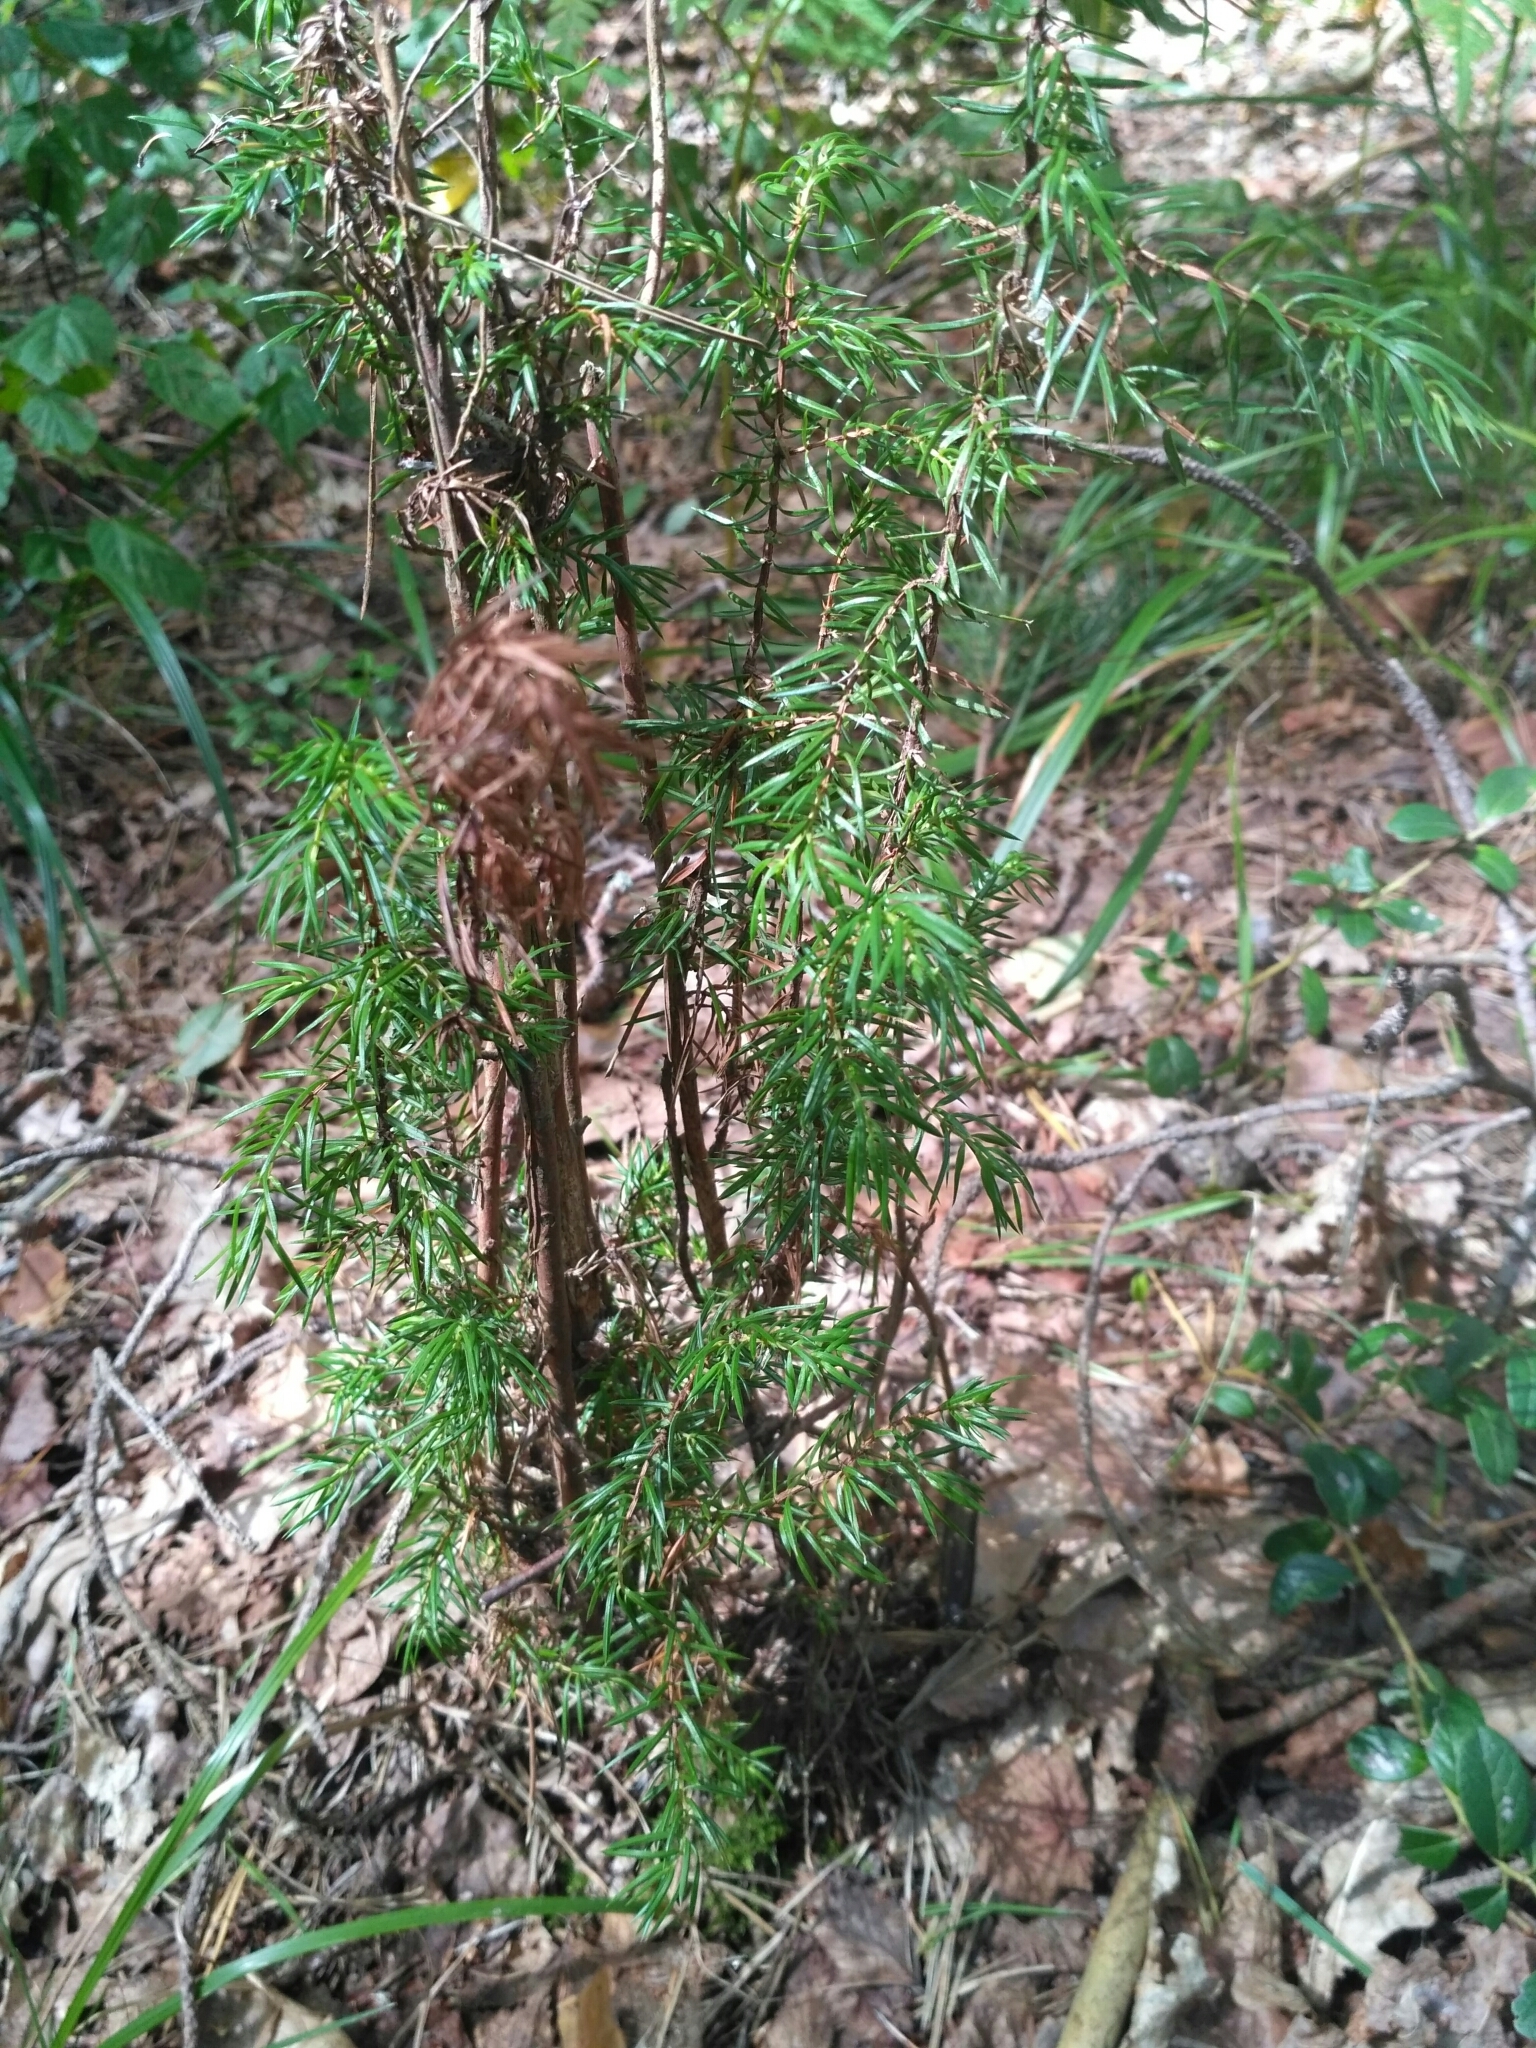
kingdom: Plantae
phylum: Tracheophyta
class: Pinopsida
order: Pinales
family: Cupressaceae
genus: Juniperus
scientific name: Juniperus communis
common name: Common juniper
